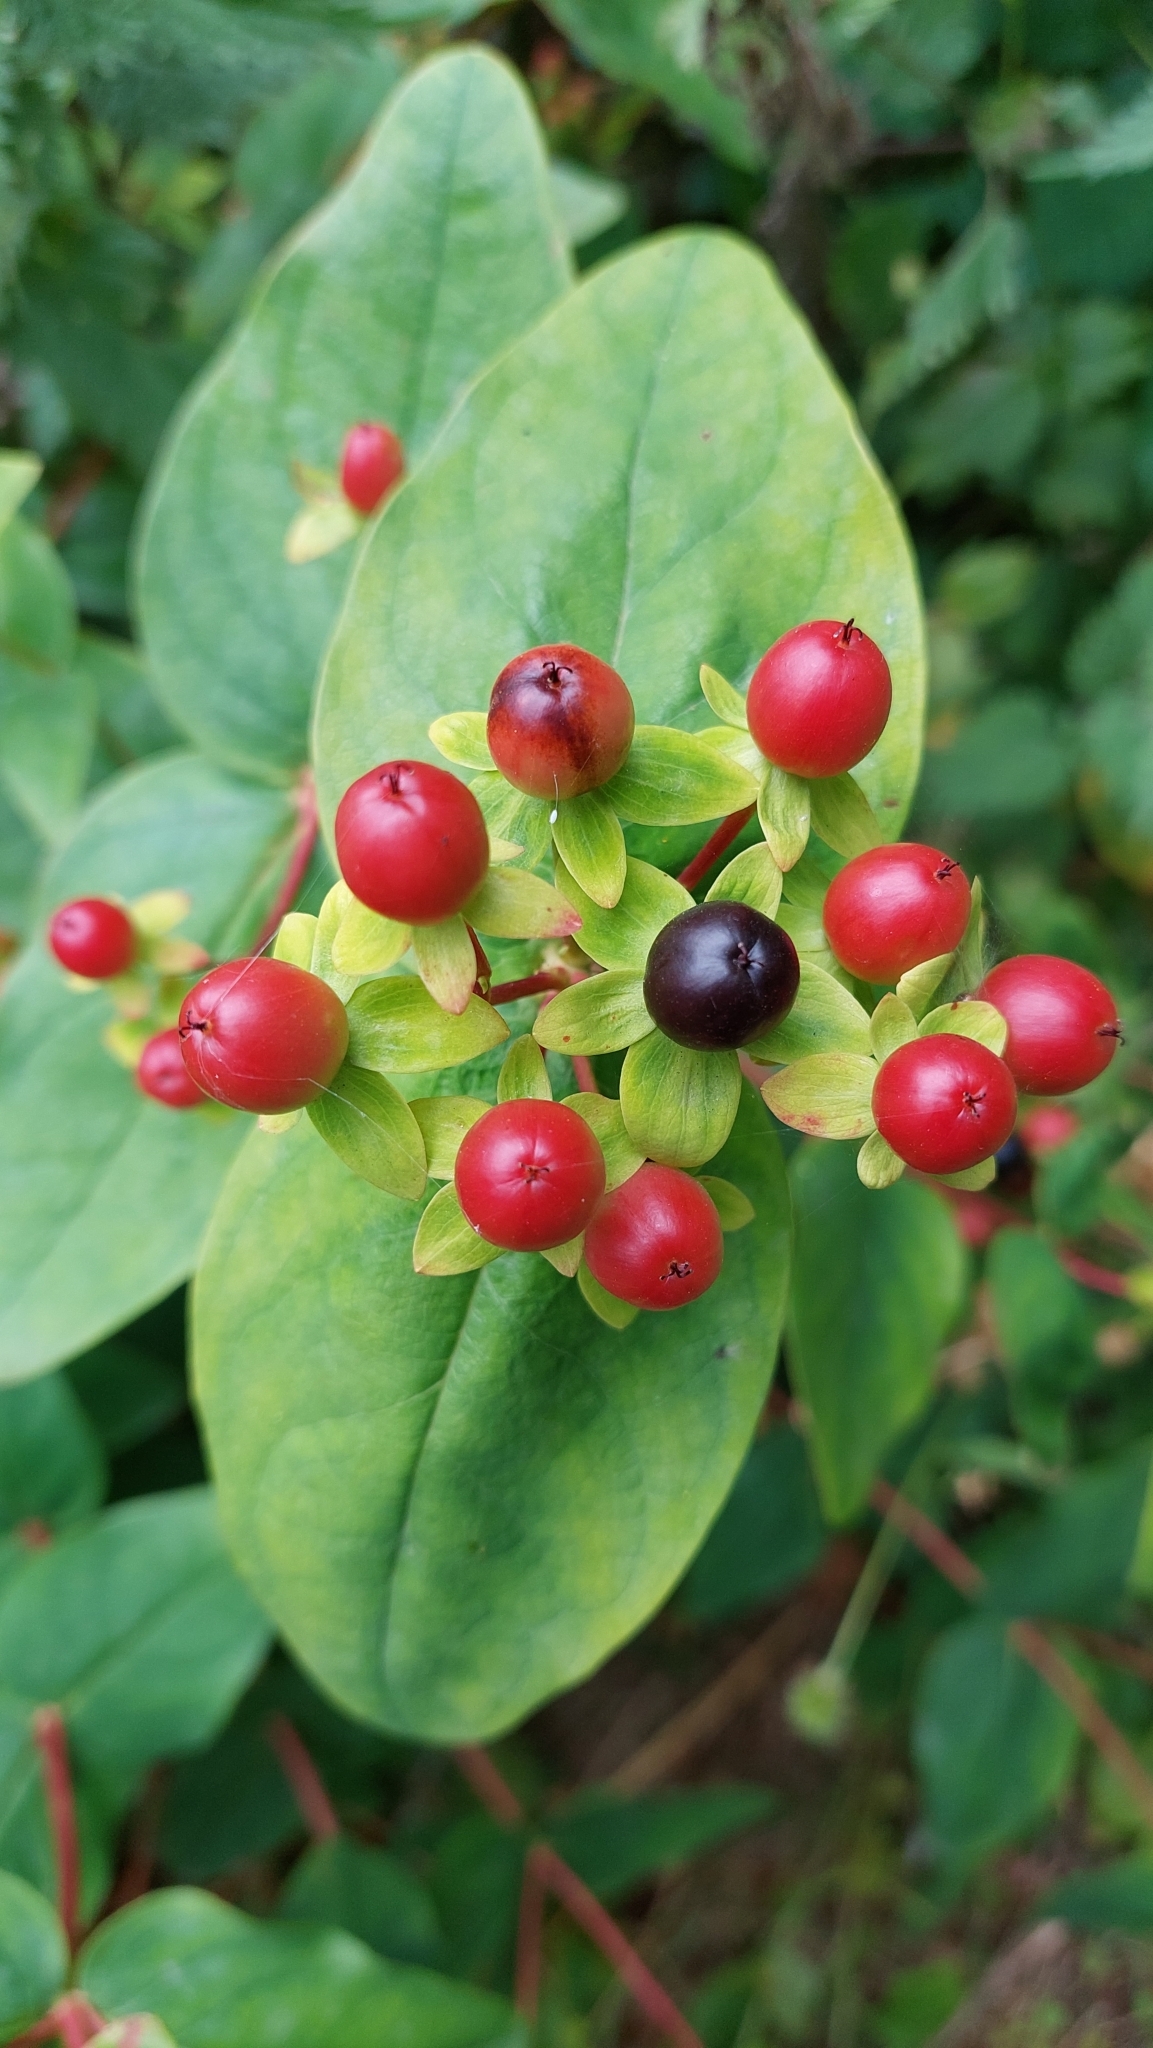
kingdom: Plantae
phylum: Tracheophyta
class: Magnoliopsida
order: Malpighiales
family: Hypericaceae
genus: Hypericum
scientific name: Hypericum androsaemum
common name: Sweet-amber
